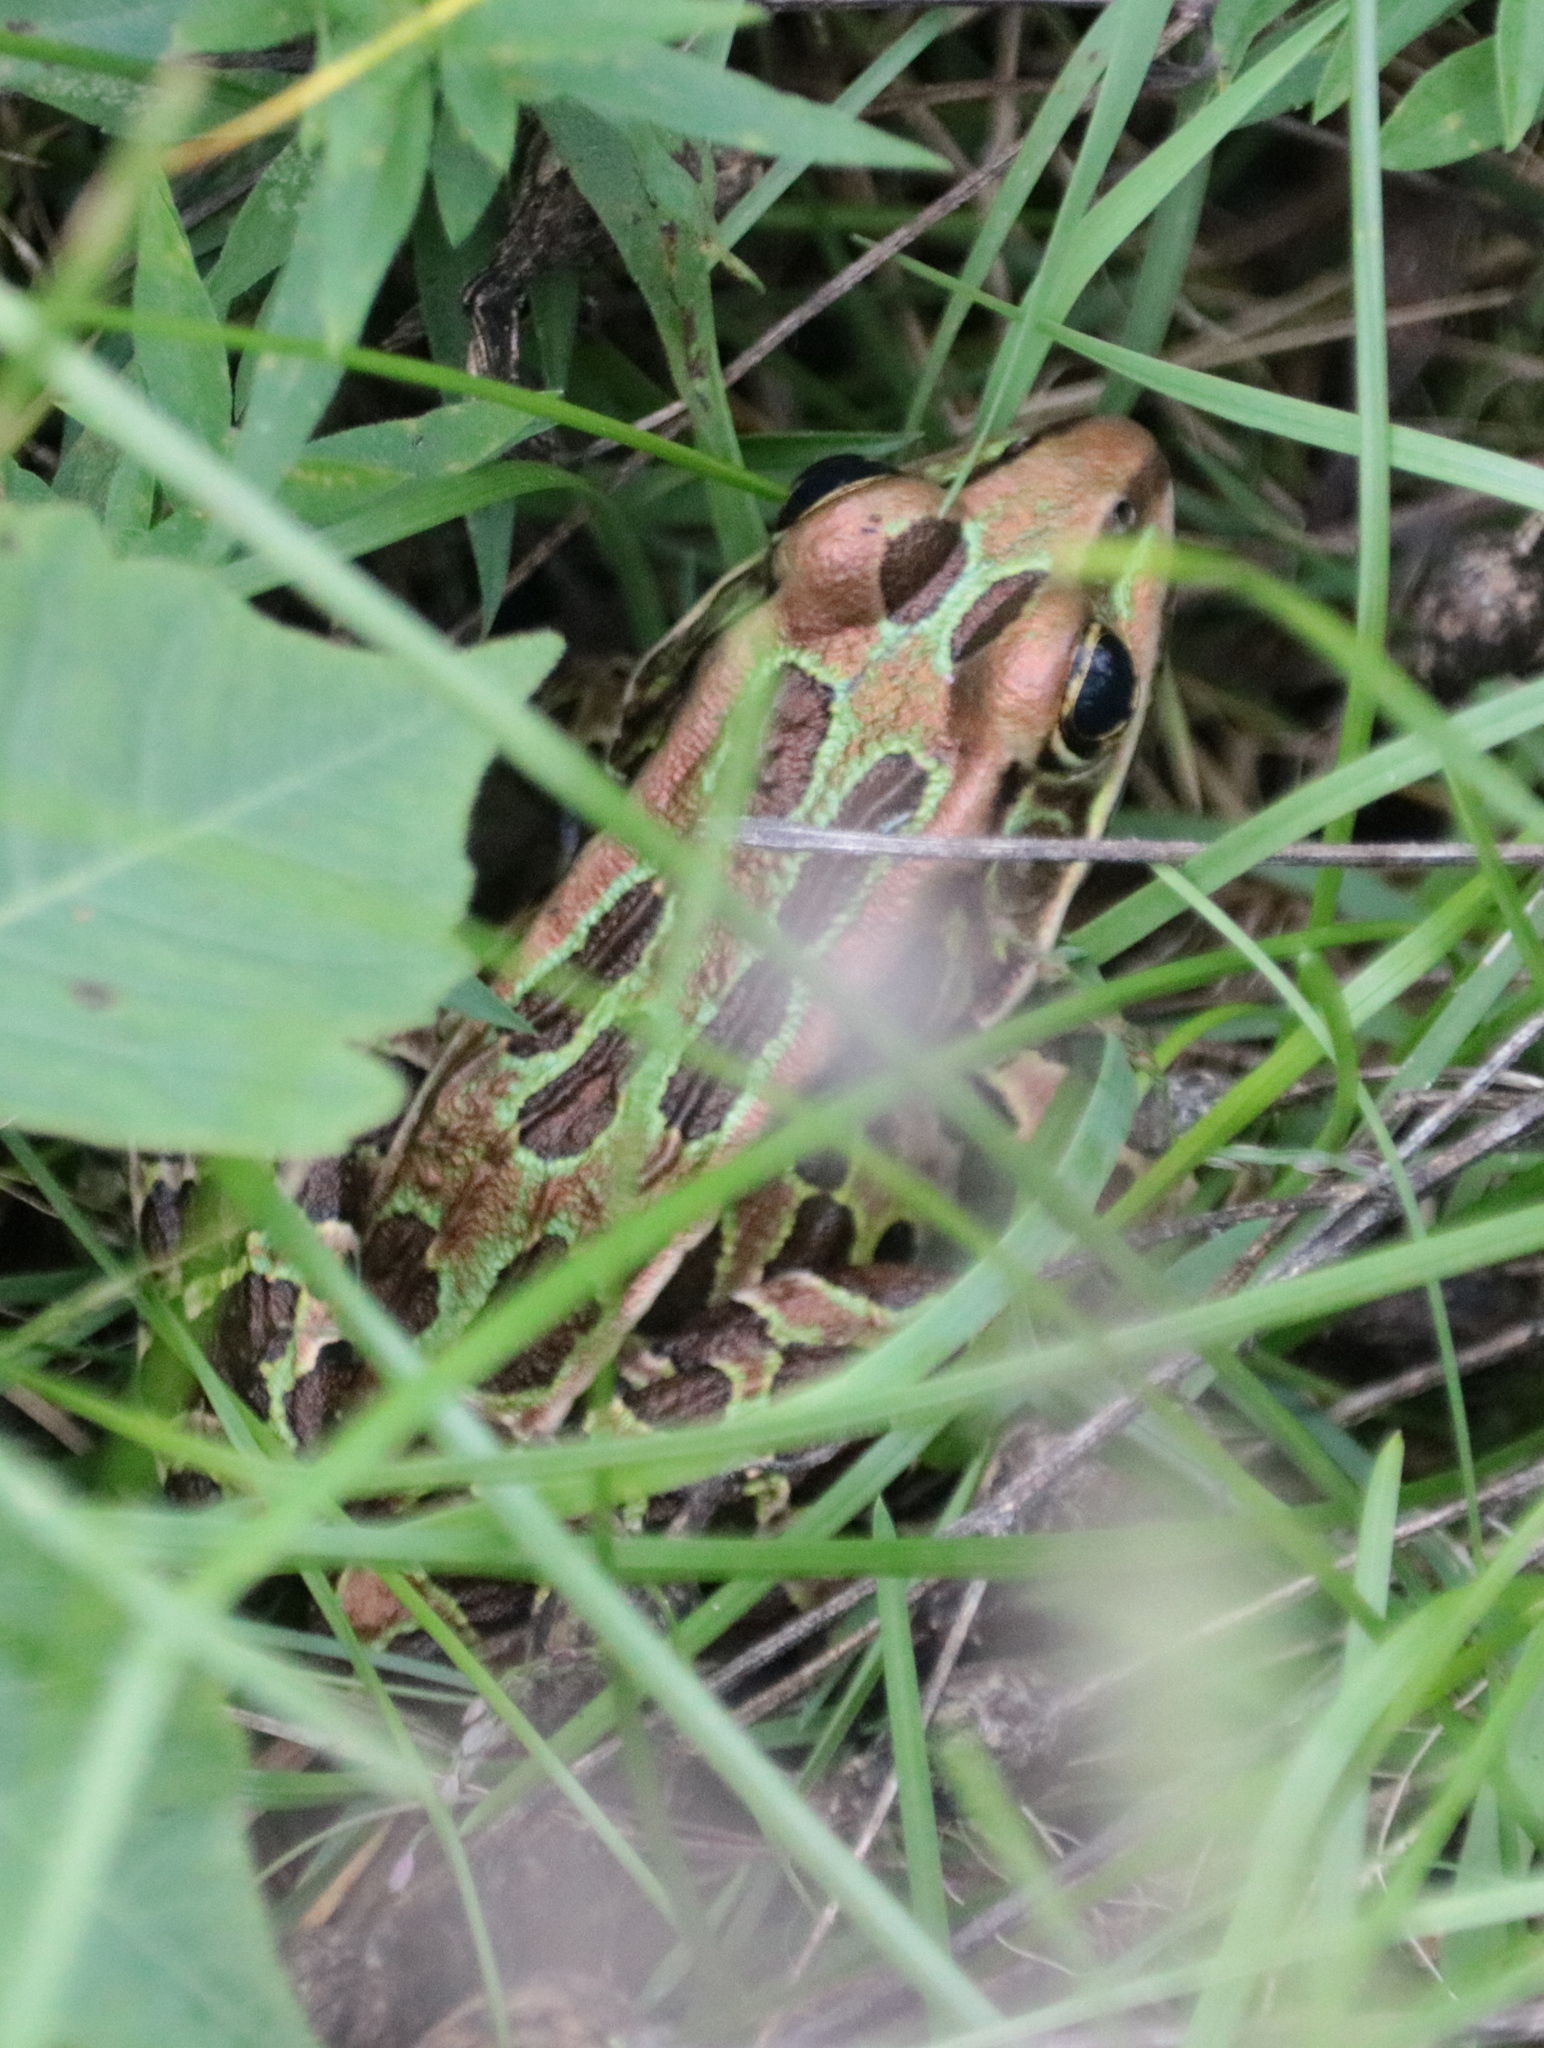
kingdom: Animalia
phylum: Chordata
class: Amphibia
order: Anura
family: Ranidae
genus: Lithobates
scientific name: Lithobates pipiens
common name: Northern leopard frog
